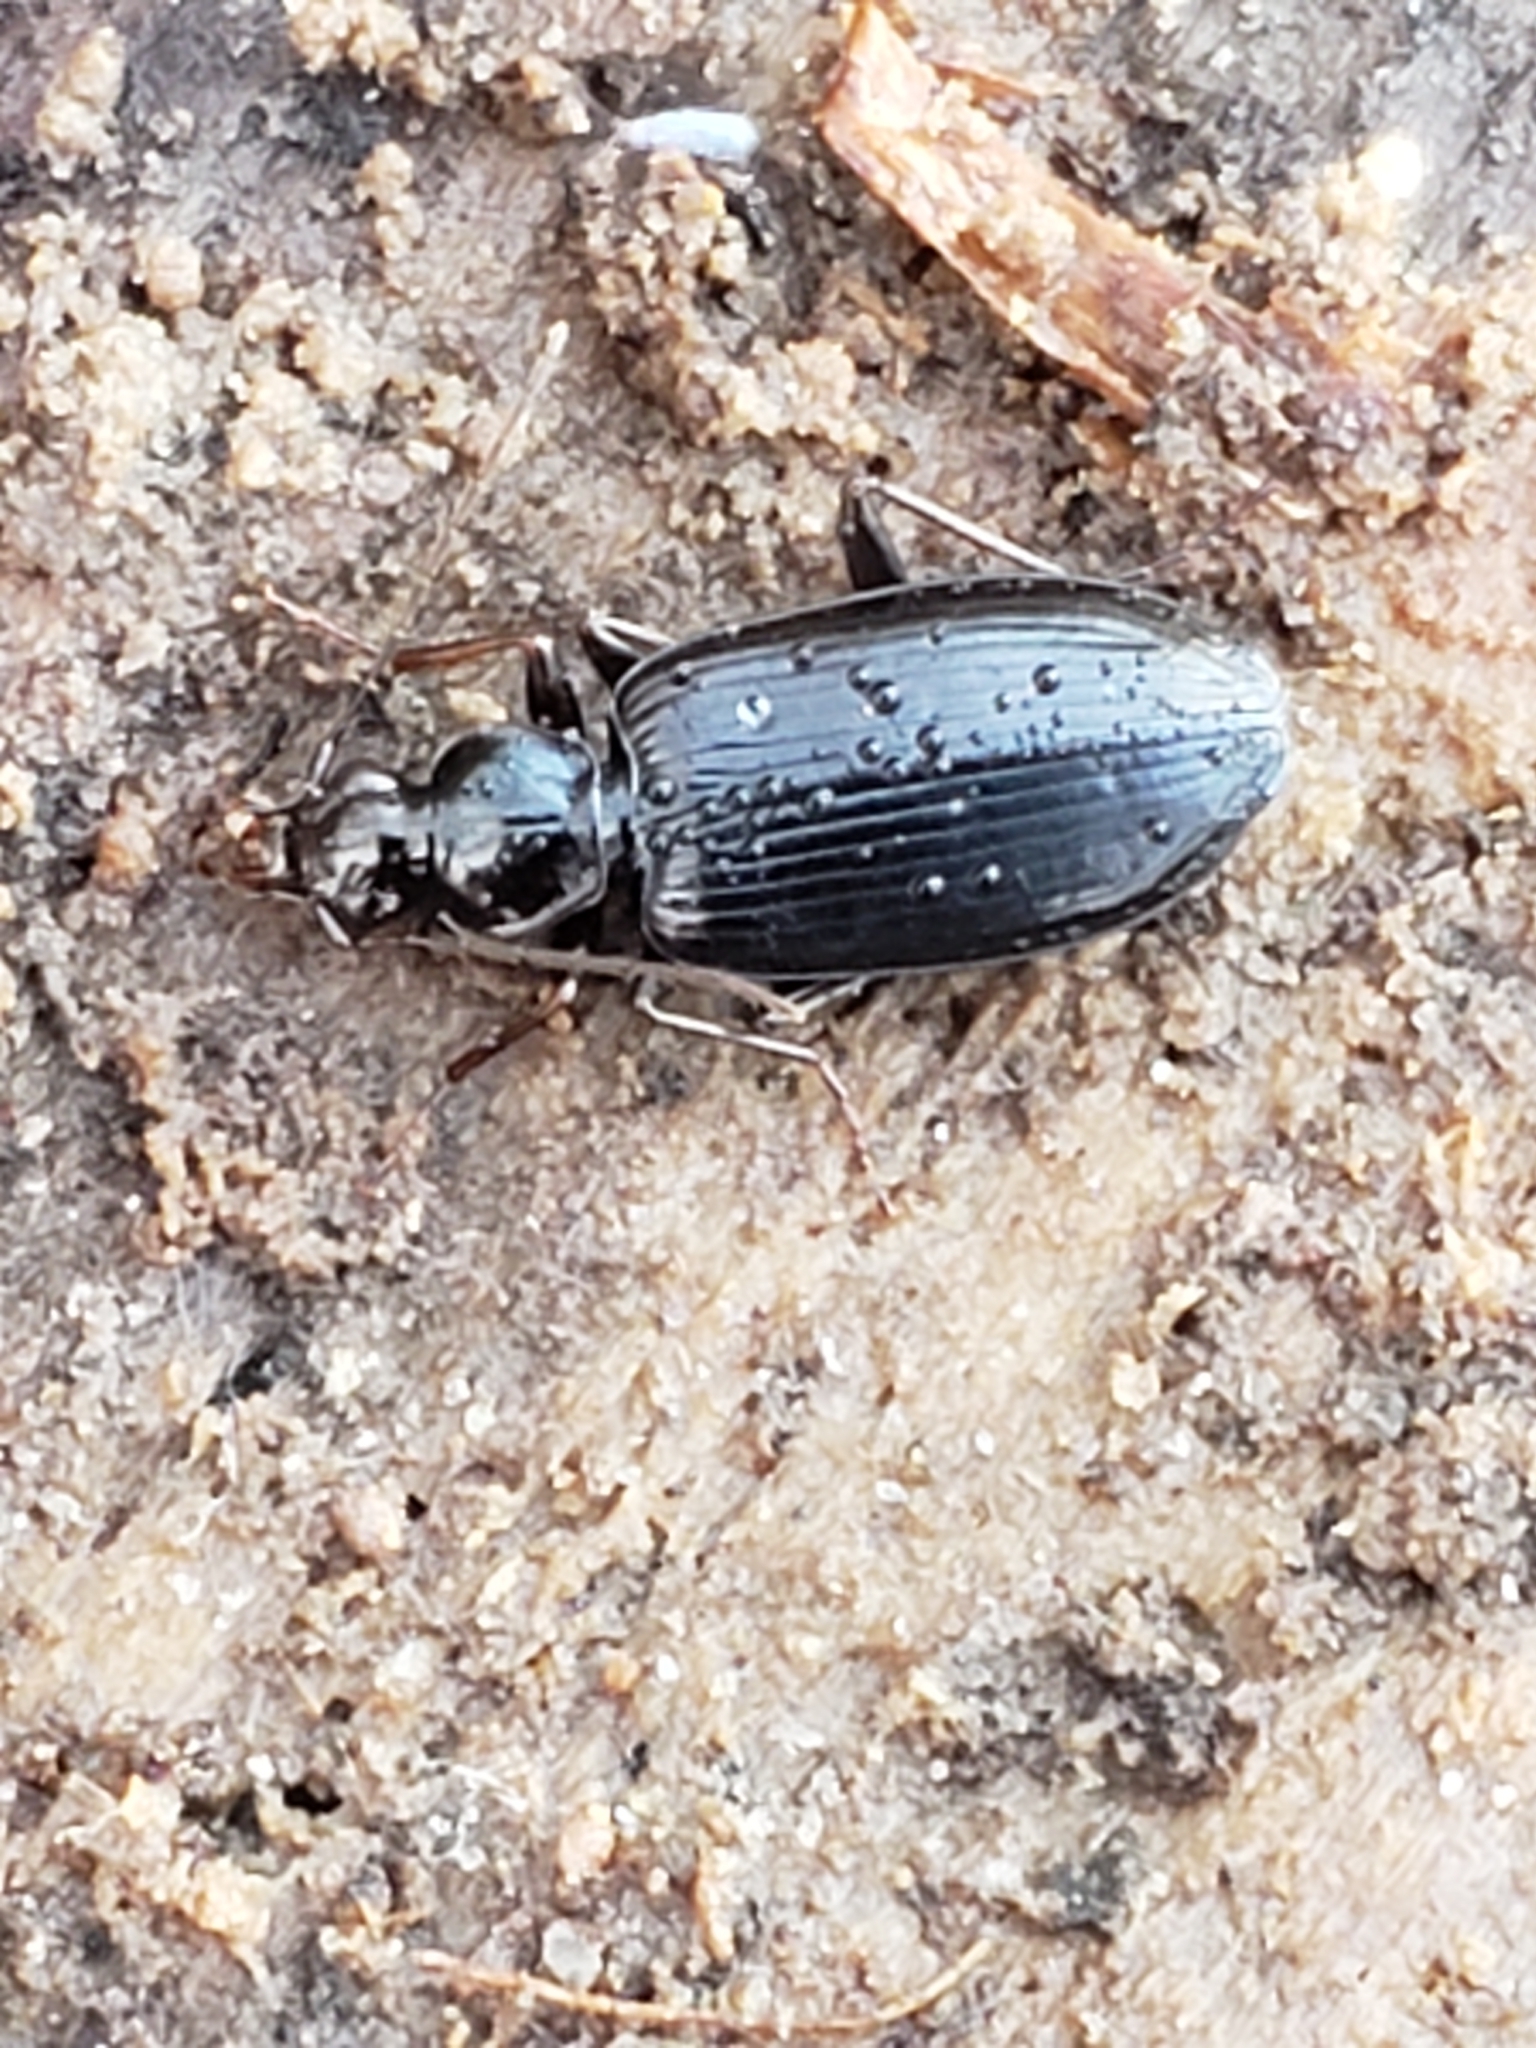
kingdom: Animalia
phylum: Arthropoda
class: Insecta
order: Coleoptera
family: Carabidae
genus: Platynus
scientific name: Platynus cincticollis
